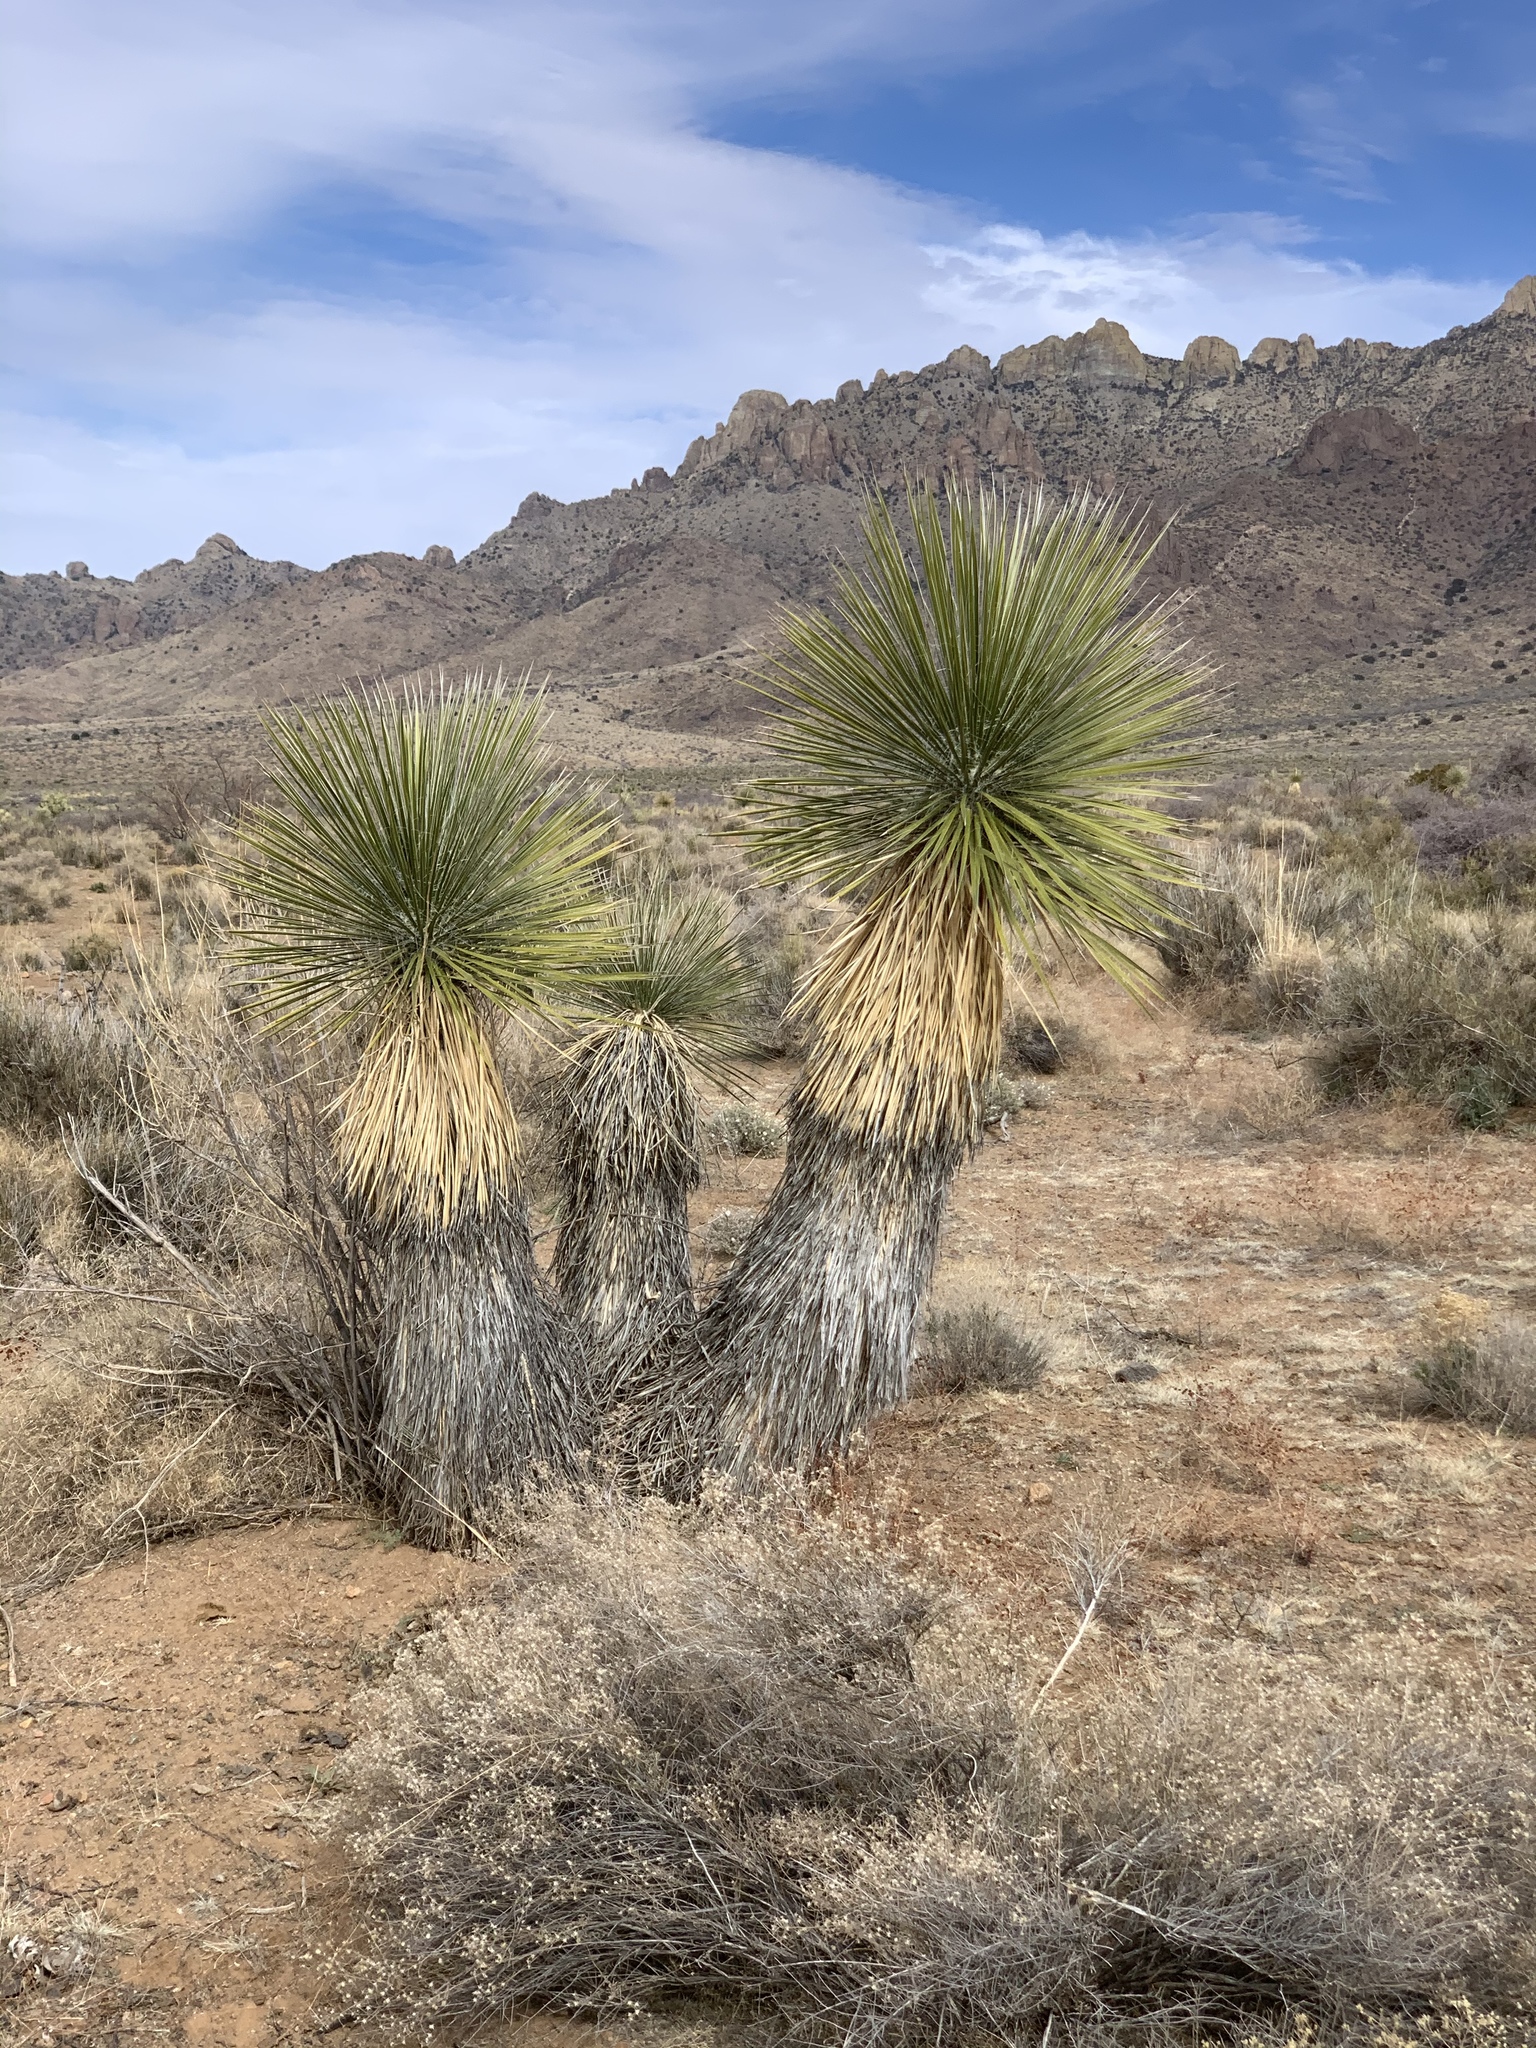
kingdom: Plantae
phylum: Tracheophyta
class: Liliopsida
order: Asparagales
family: Asparagaceae
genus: Yucca
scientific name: Yucca elata
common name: Palmella
